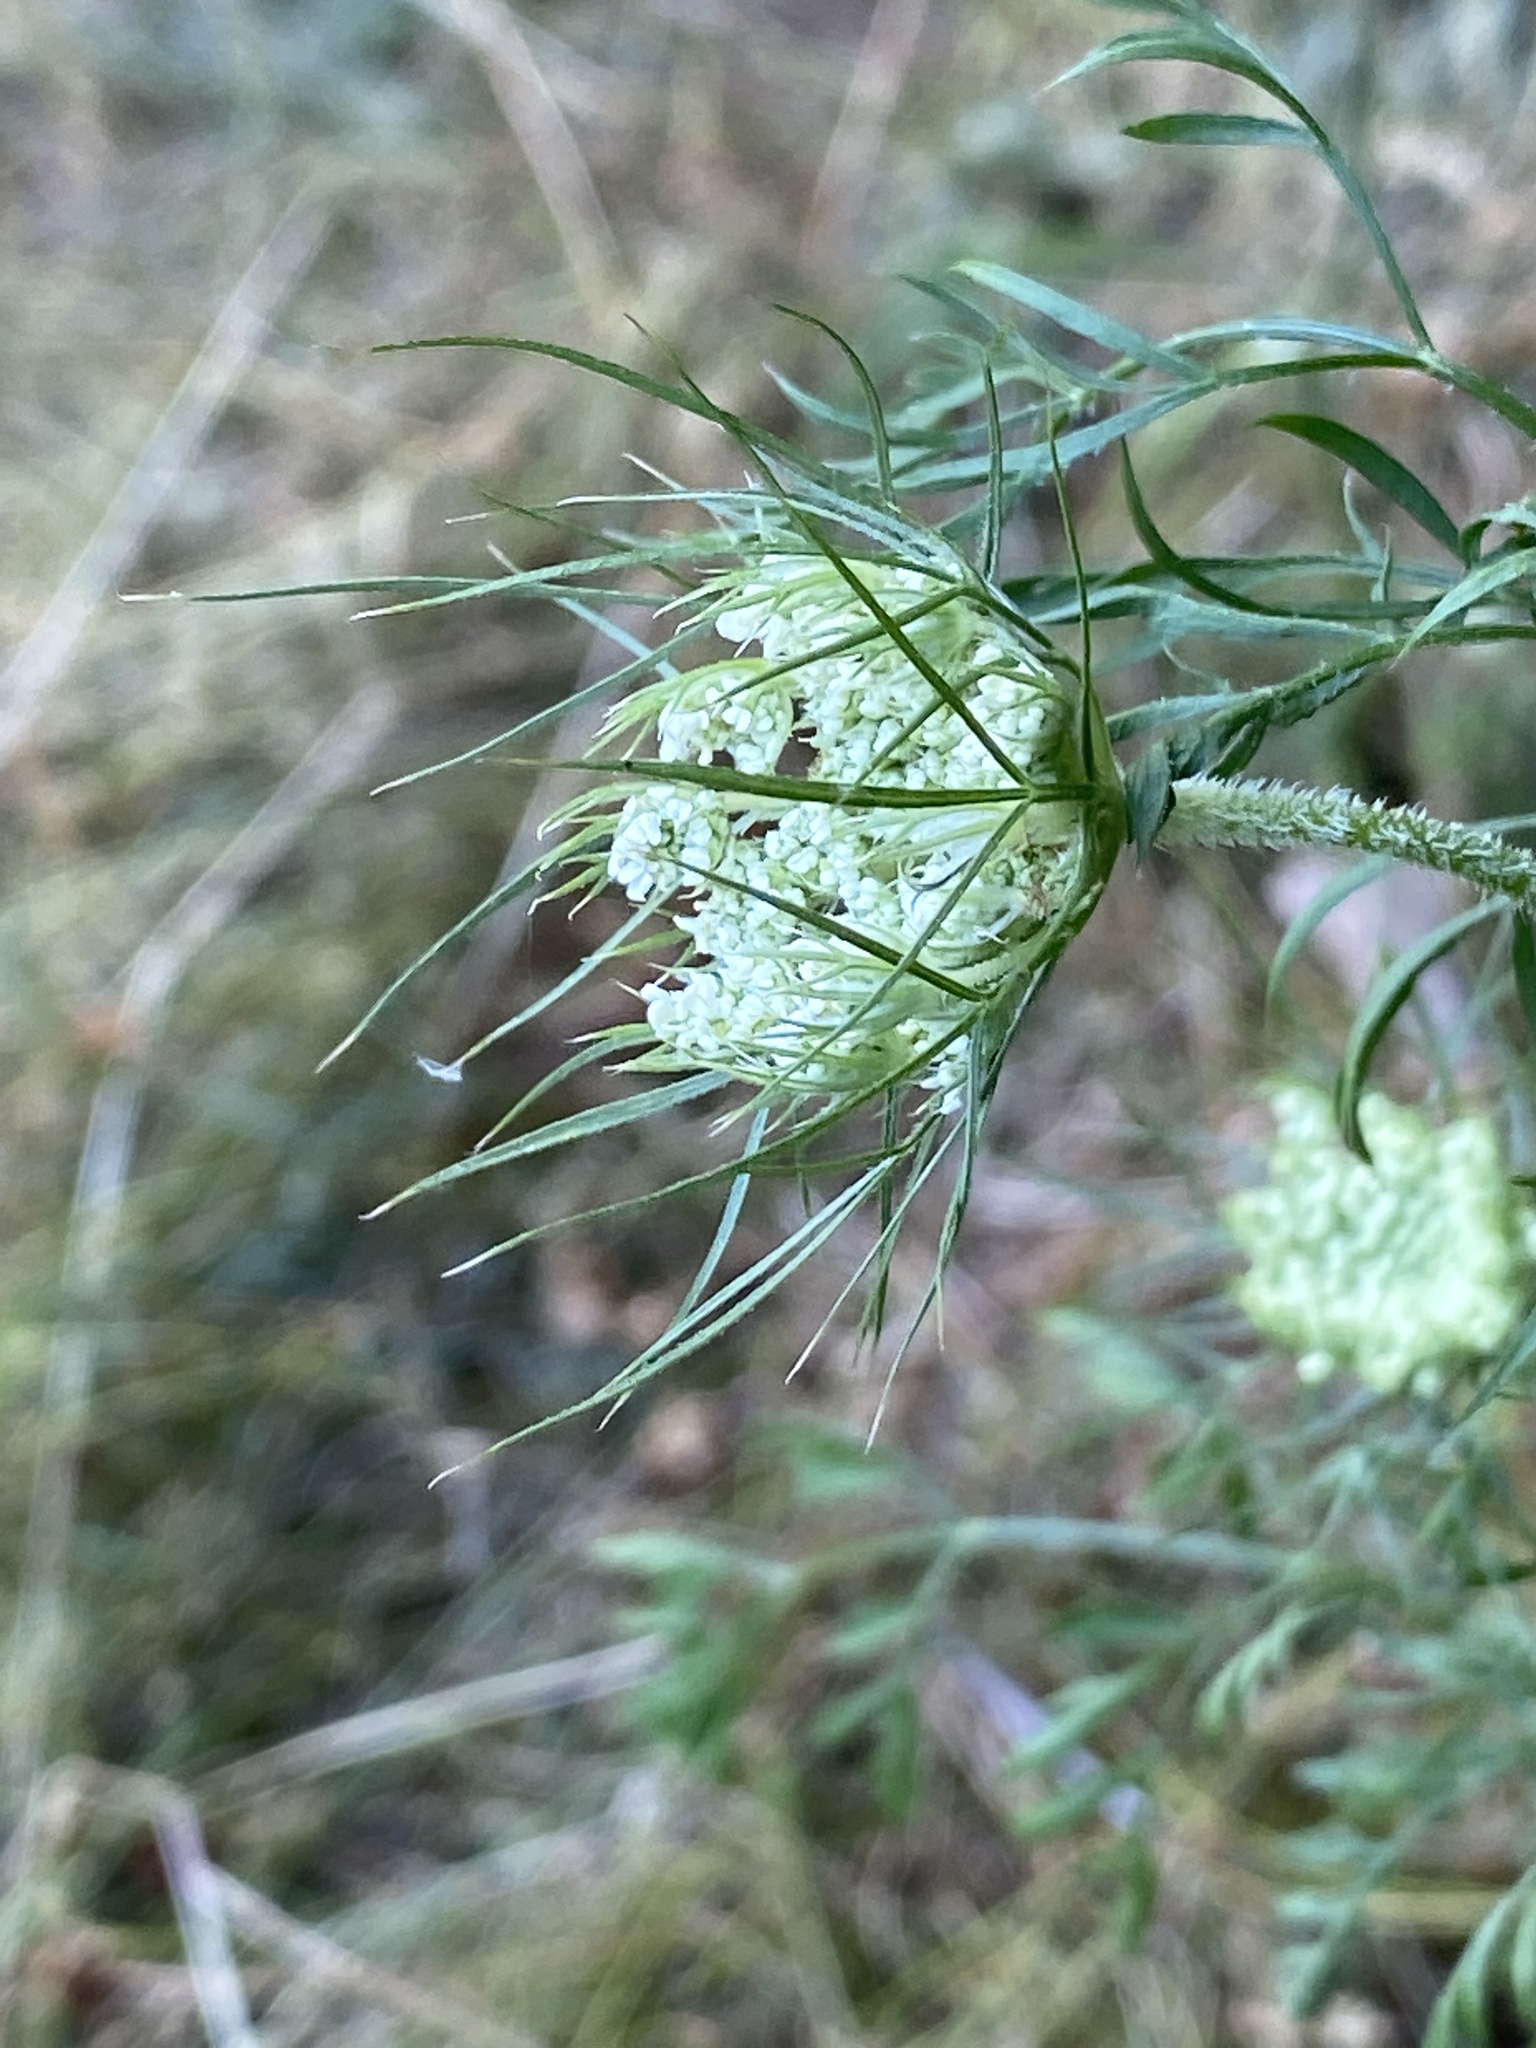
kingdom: Plantae
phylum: Tracheophyta
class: Magnoliopsida
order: Apiales
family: Apiaceae
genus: Daucus
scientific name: Daucus carota
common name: Wild carrot
